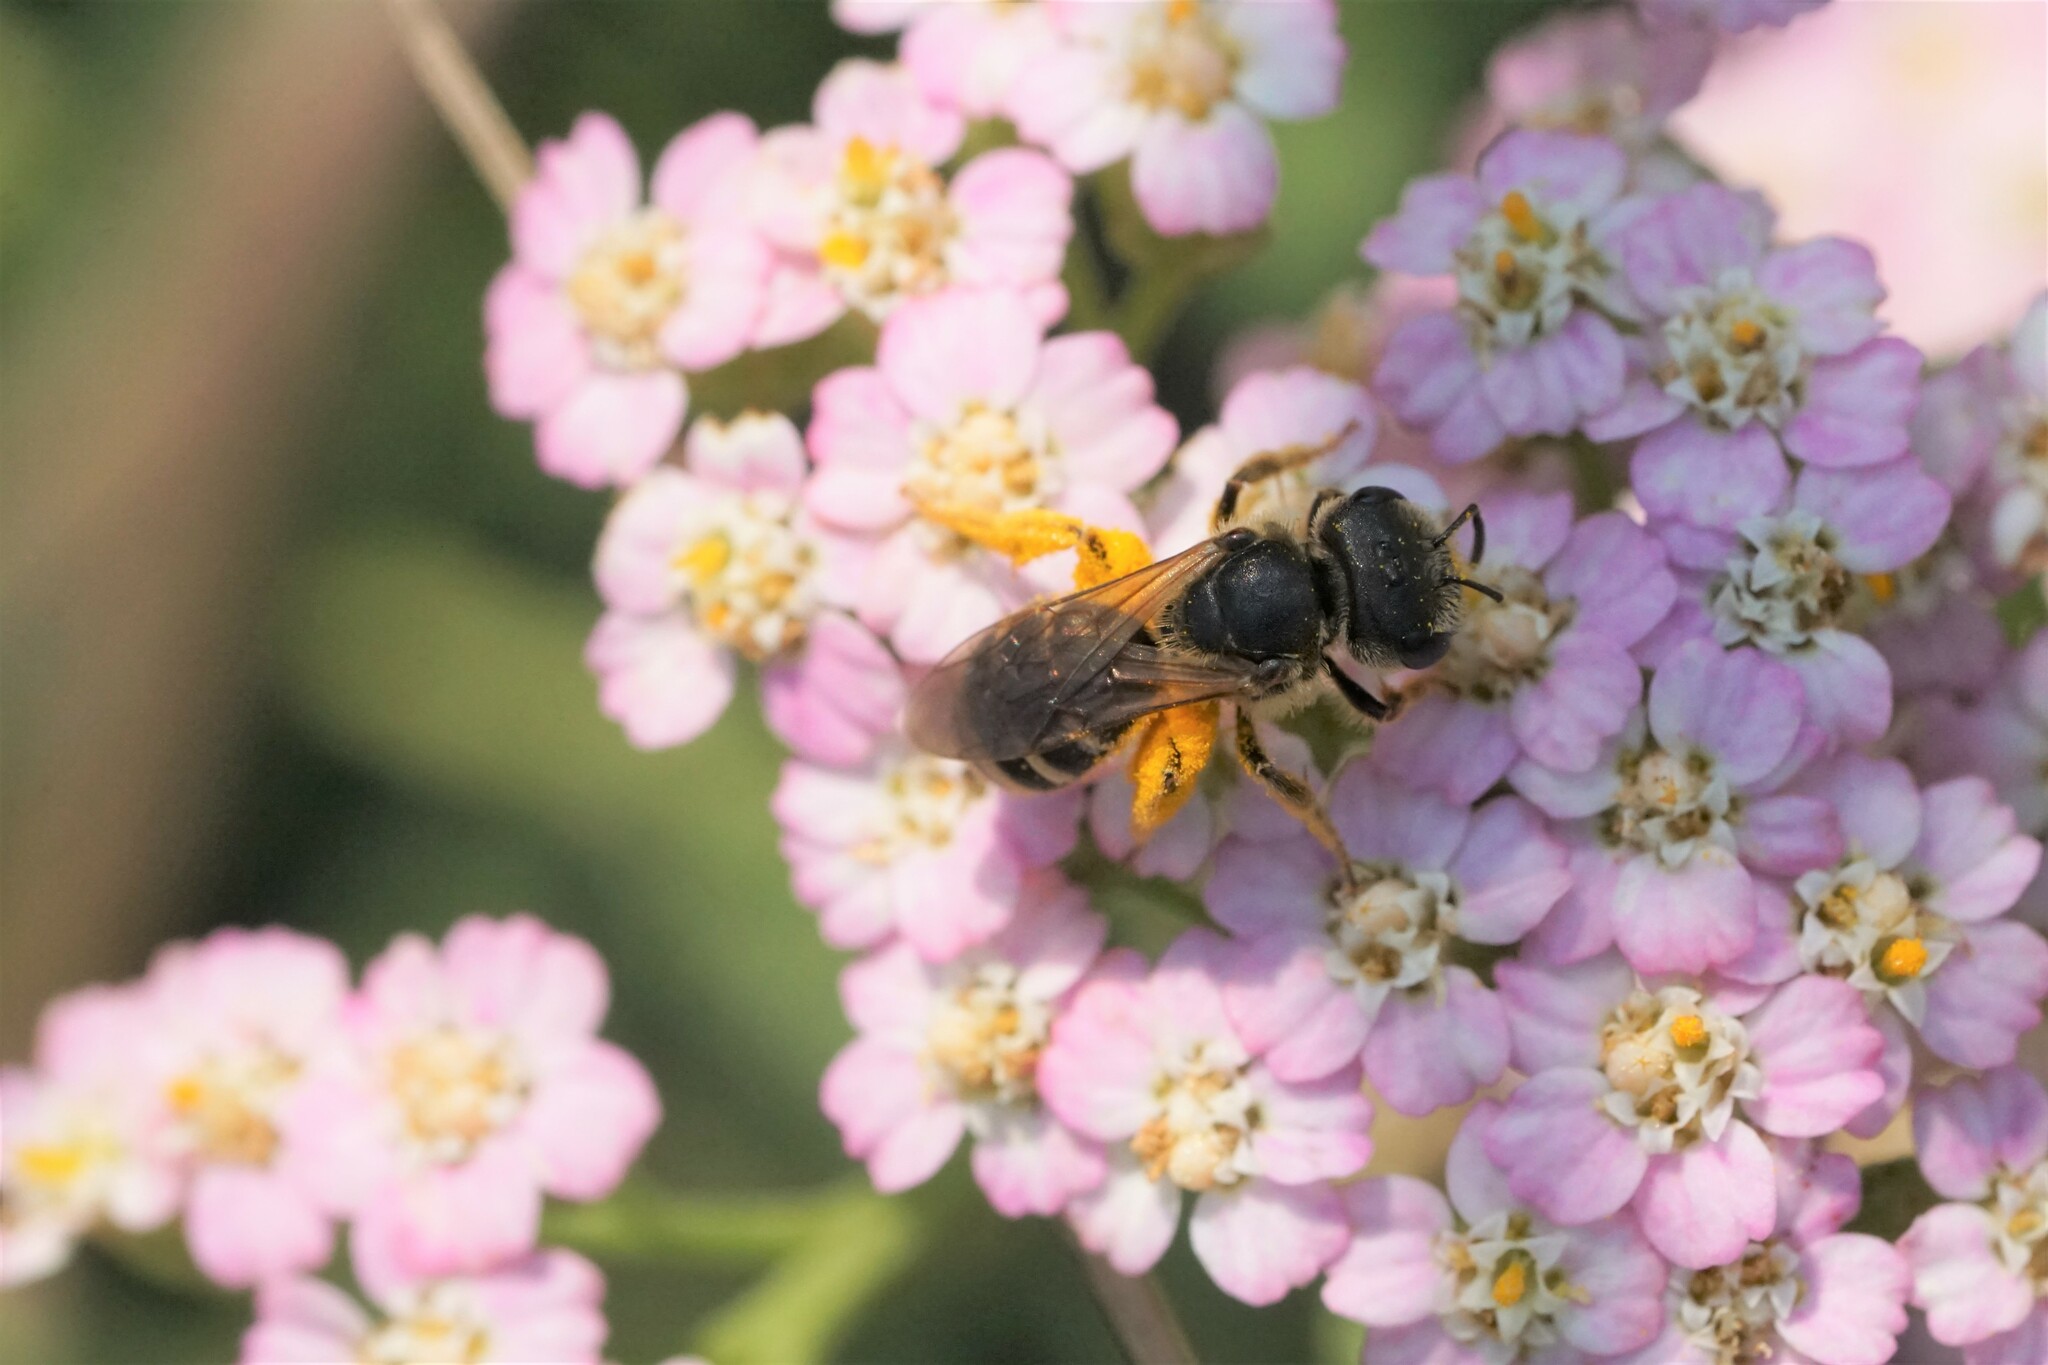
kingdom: Animalia
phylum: Arthropoda
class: Insecta
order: Hymenoptera
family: Halictidae
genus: Halictus
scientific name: Halictus ligatus
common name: Ligated furrow bee
